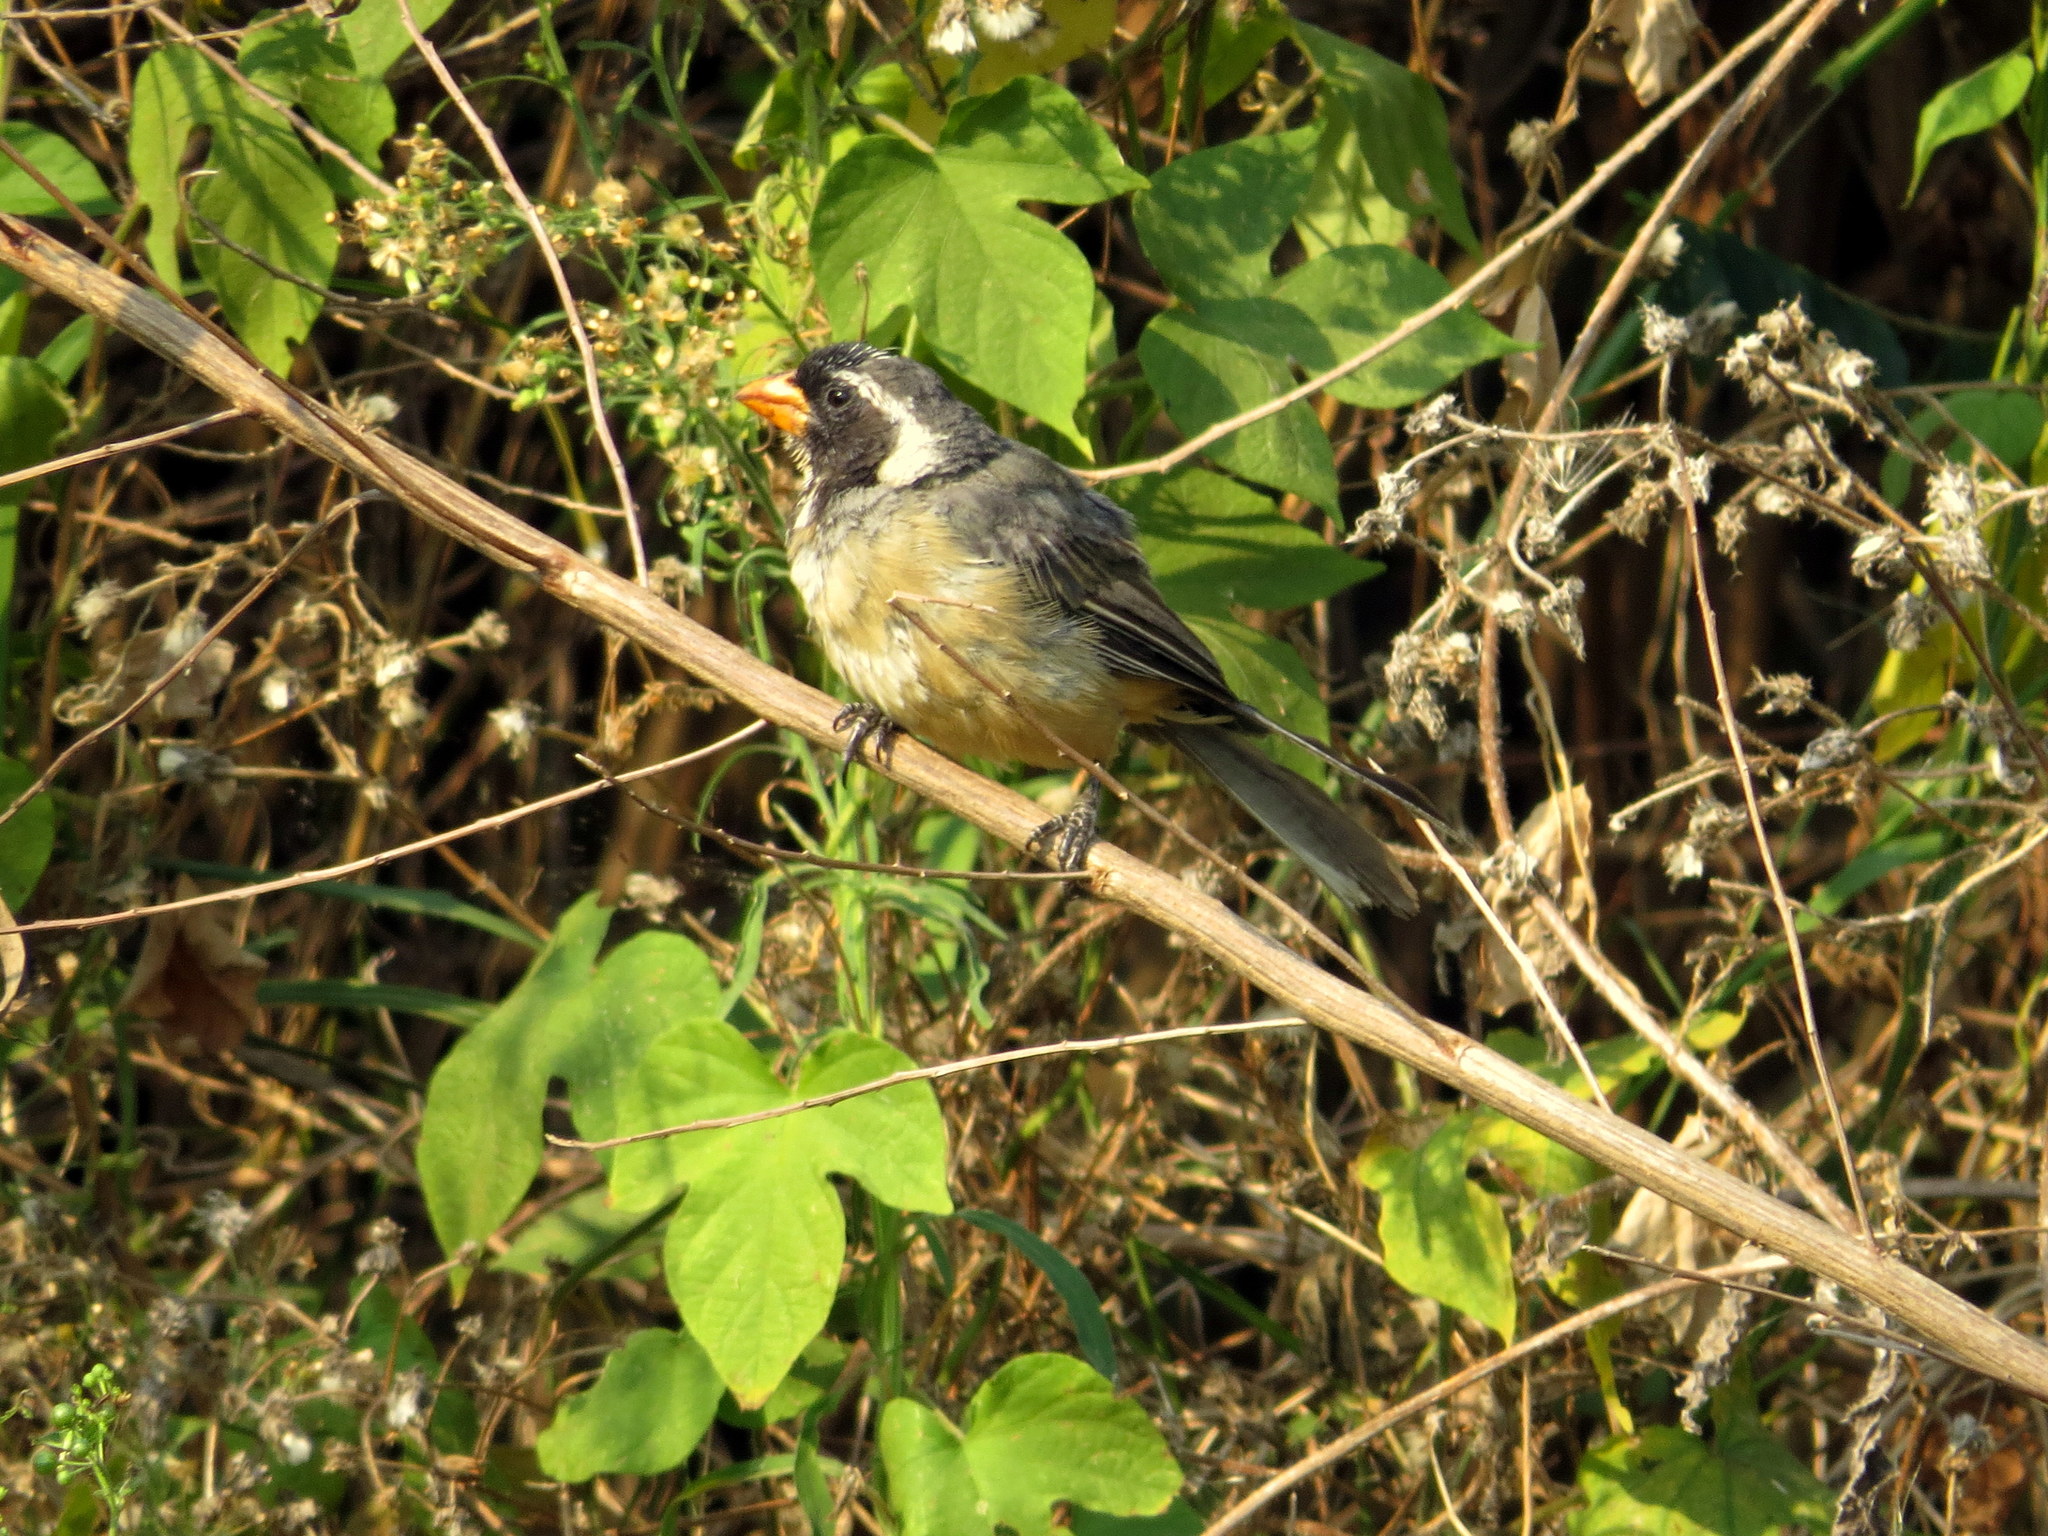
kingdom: Animalia
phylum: Chordata
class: Aves
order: Passeriformes
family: Thraupidae
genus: Saltator
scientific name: Saltator aurantiirostris
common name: Golden-billed saltator
